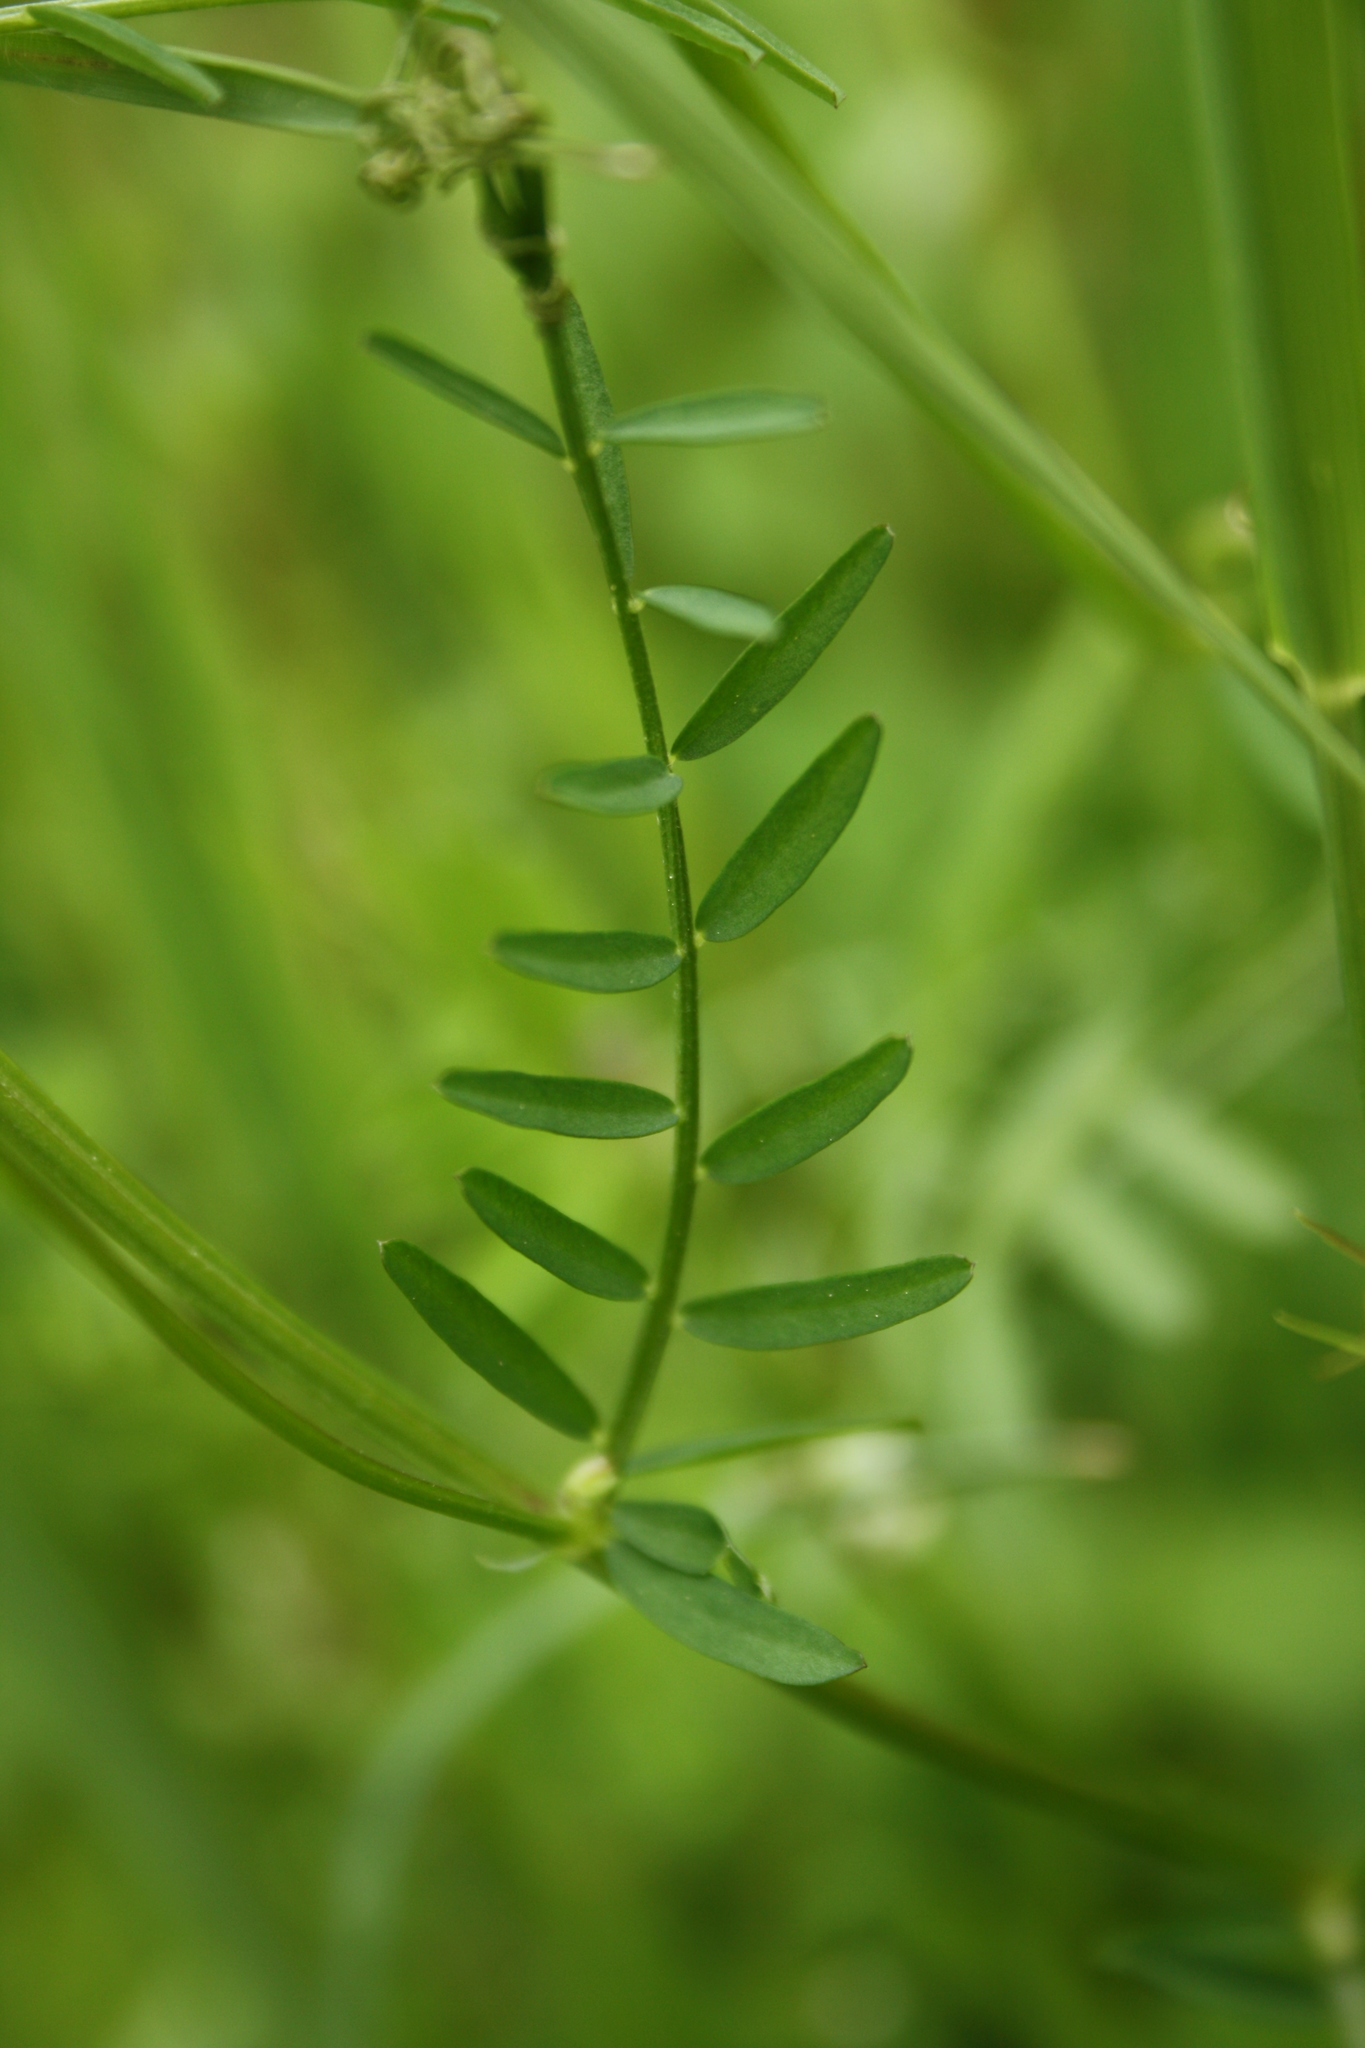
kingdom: Plantae
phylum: Tracheophyta
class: Magnoliopsida
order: Fabales
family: Fabaceae
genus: Vicia
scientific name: Vicia hirsuta
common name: Tiny vetch
